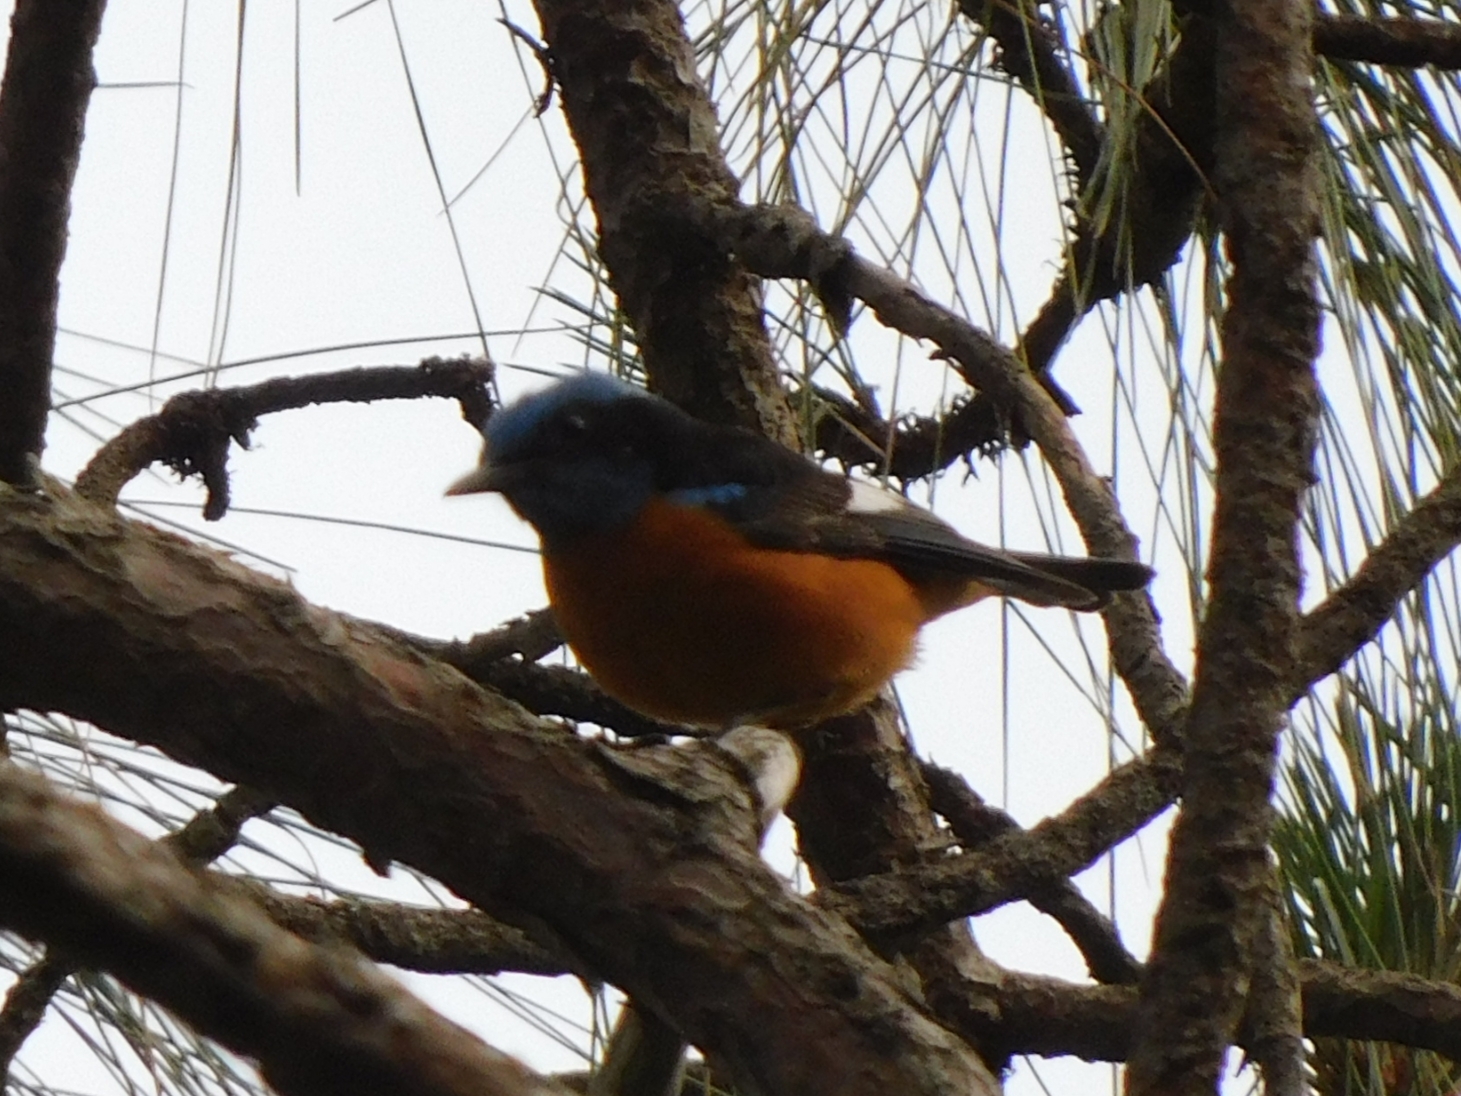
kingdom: Animalia
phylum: Chordata
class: Aves
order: Passeriformes
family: Muscicapidae
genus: Monticola
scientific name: Monticola cinclorhynchus
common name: Blue-capped rock thrush
